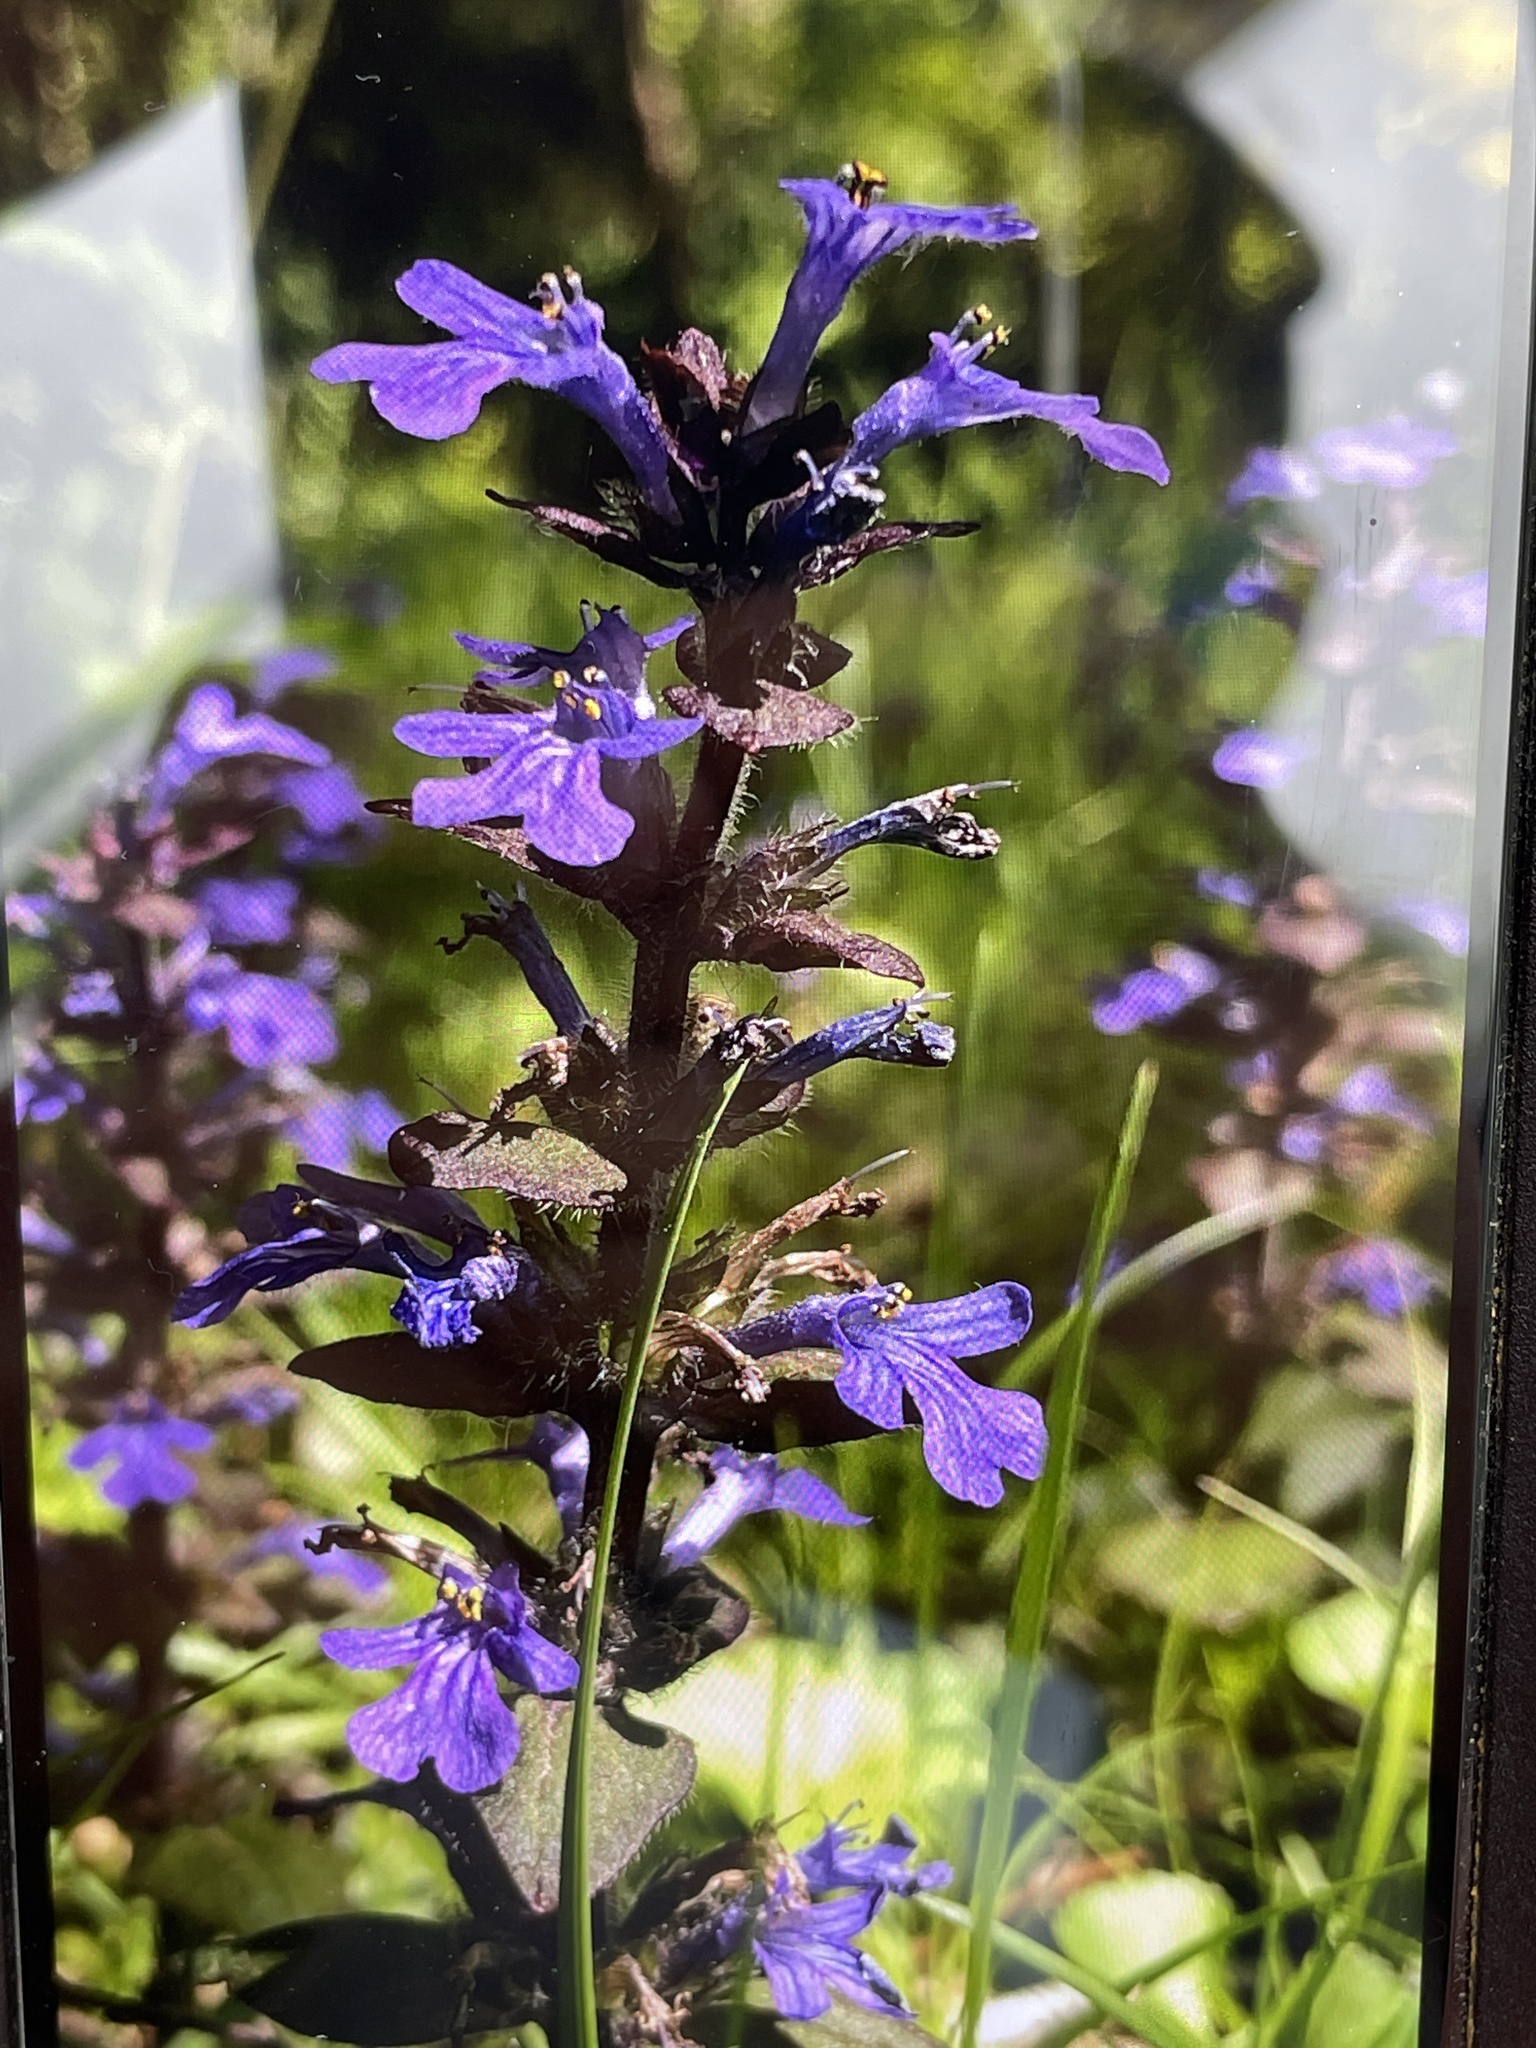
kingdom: Plantae
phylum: Tracheophyta
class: Magnoliopsida
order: Lamiales
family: Lamiaceae
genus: Ajuga
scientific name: Ajuga reptans
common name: Bugle
